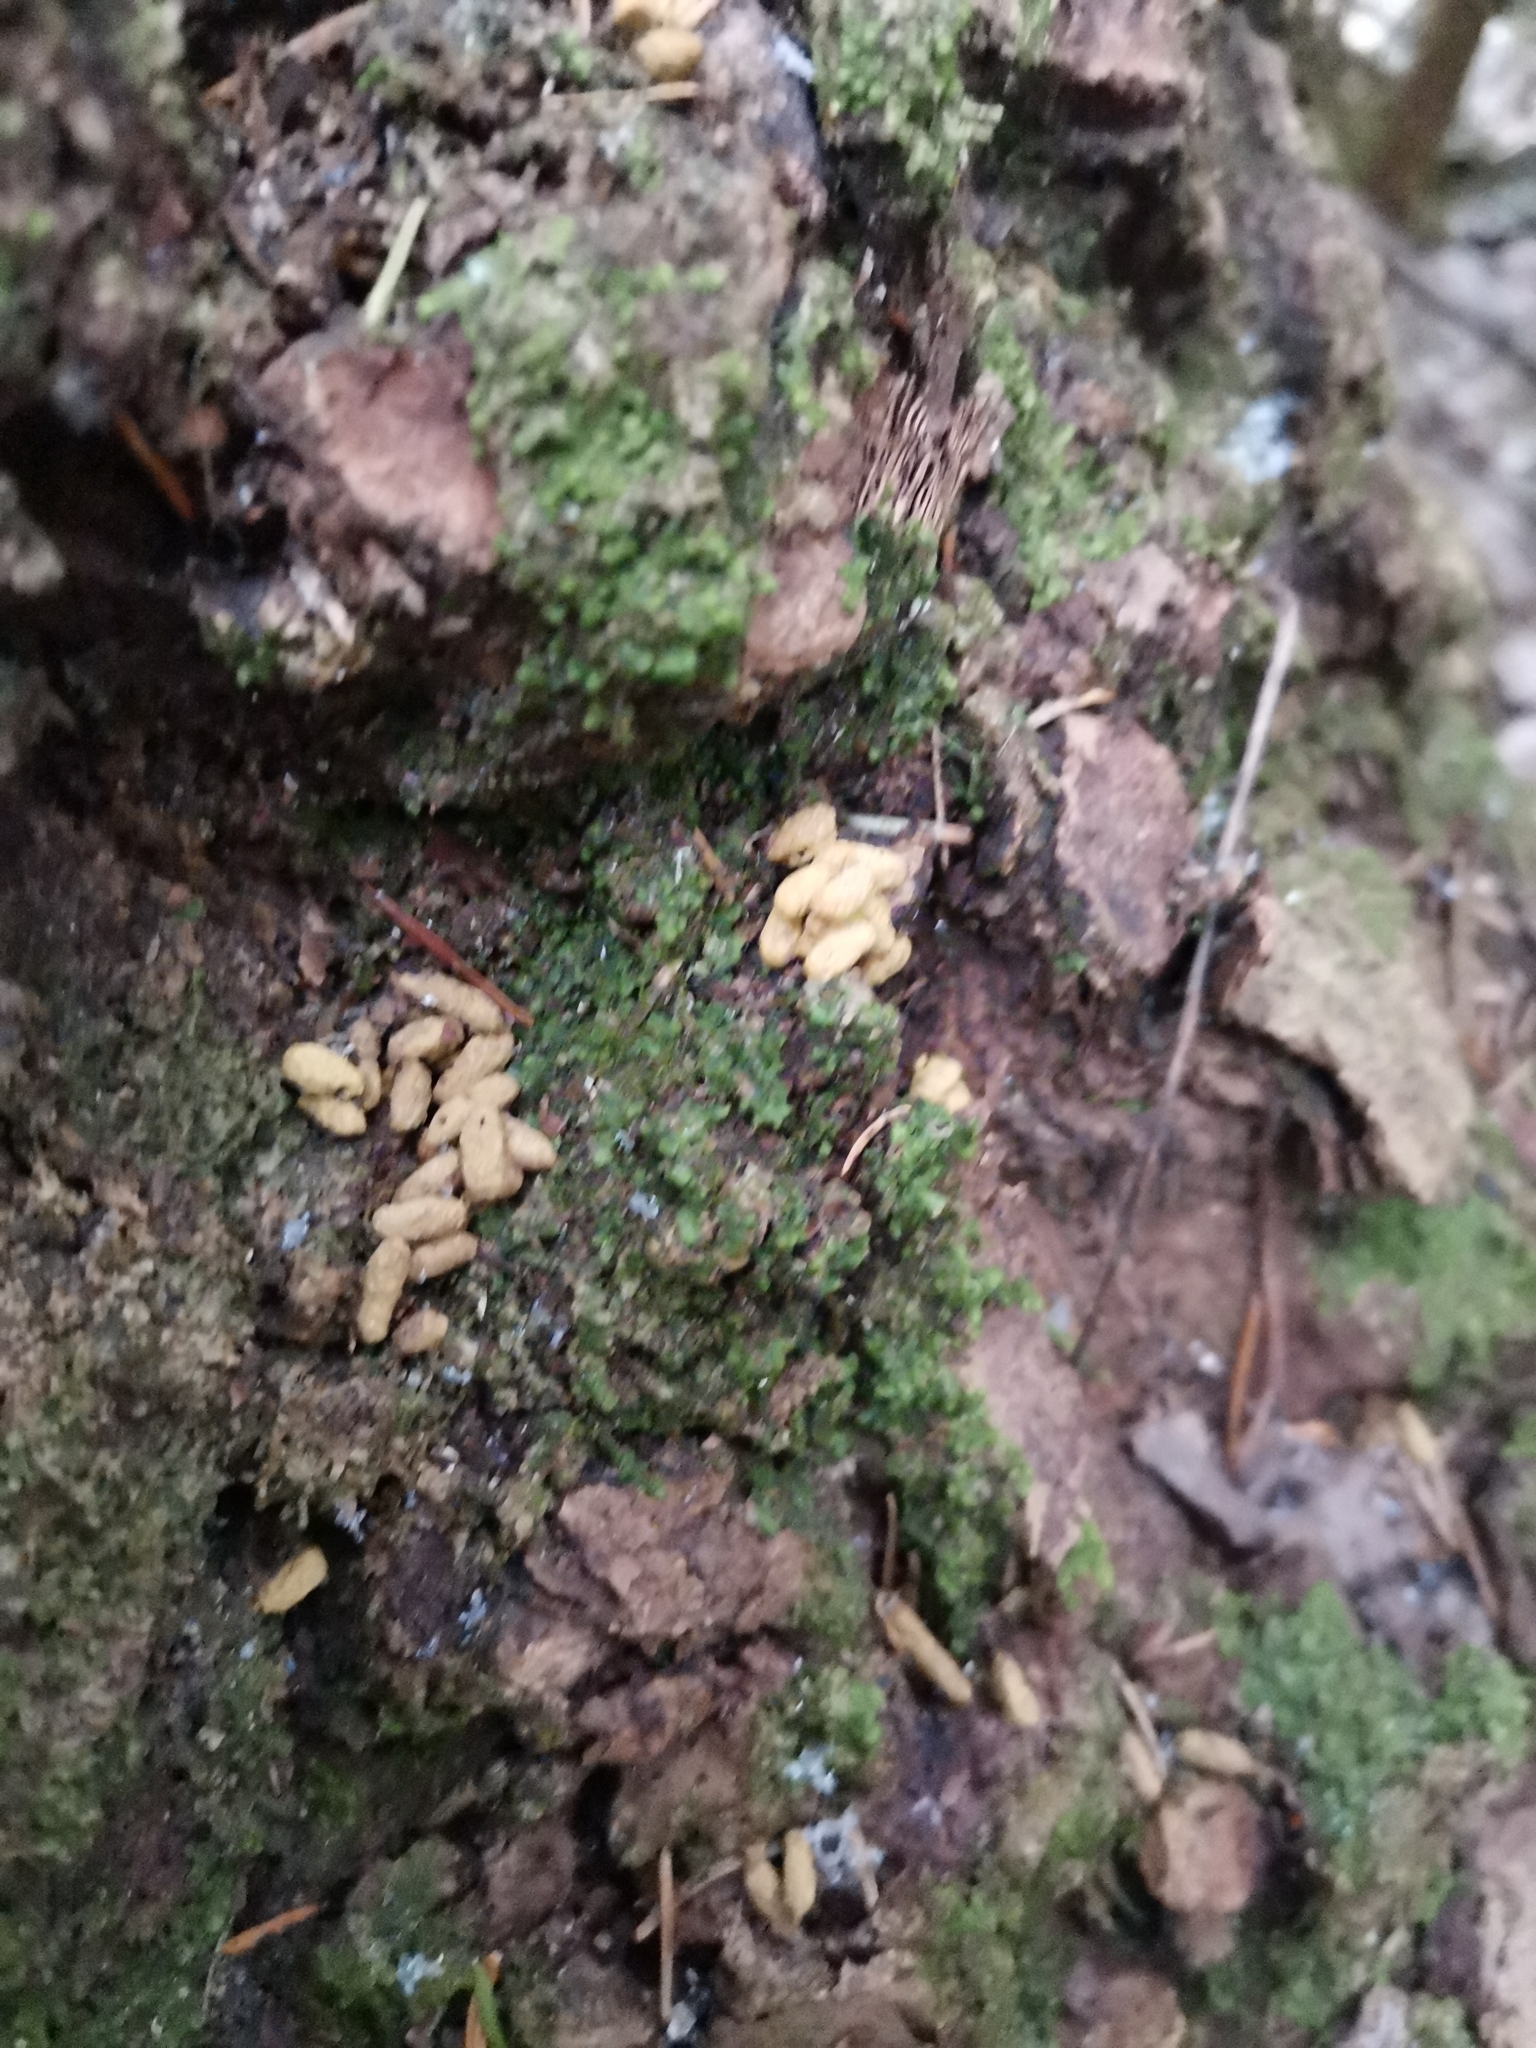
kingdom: Animalia
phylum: Chordata
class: Mammalia
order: Rodentia
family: Sciuridae
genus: Pteromys
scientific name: Pteromys volans
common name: Siberian flying squirrel
